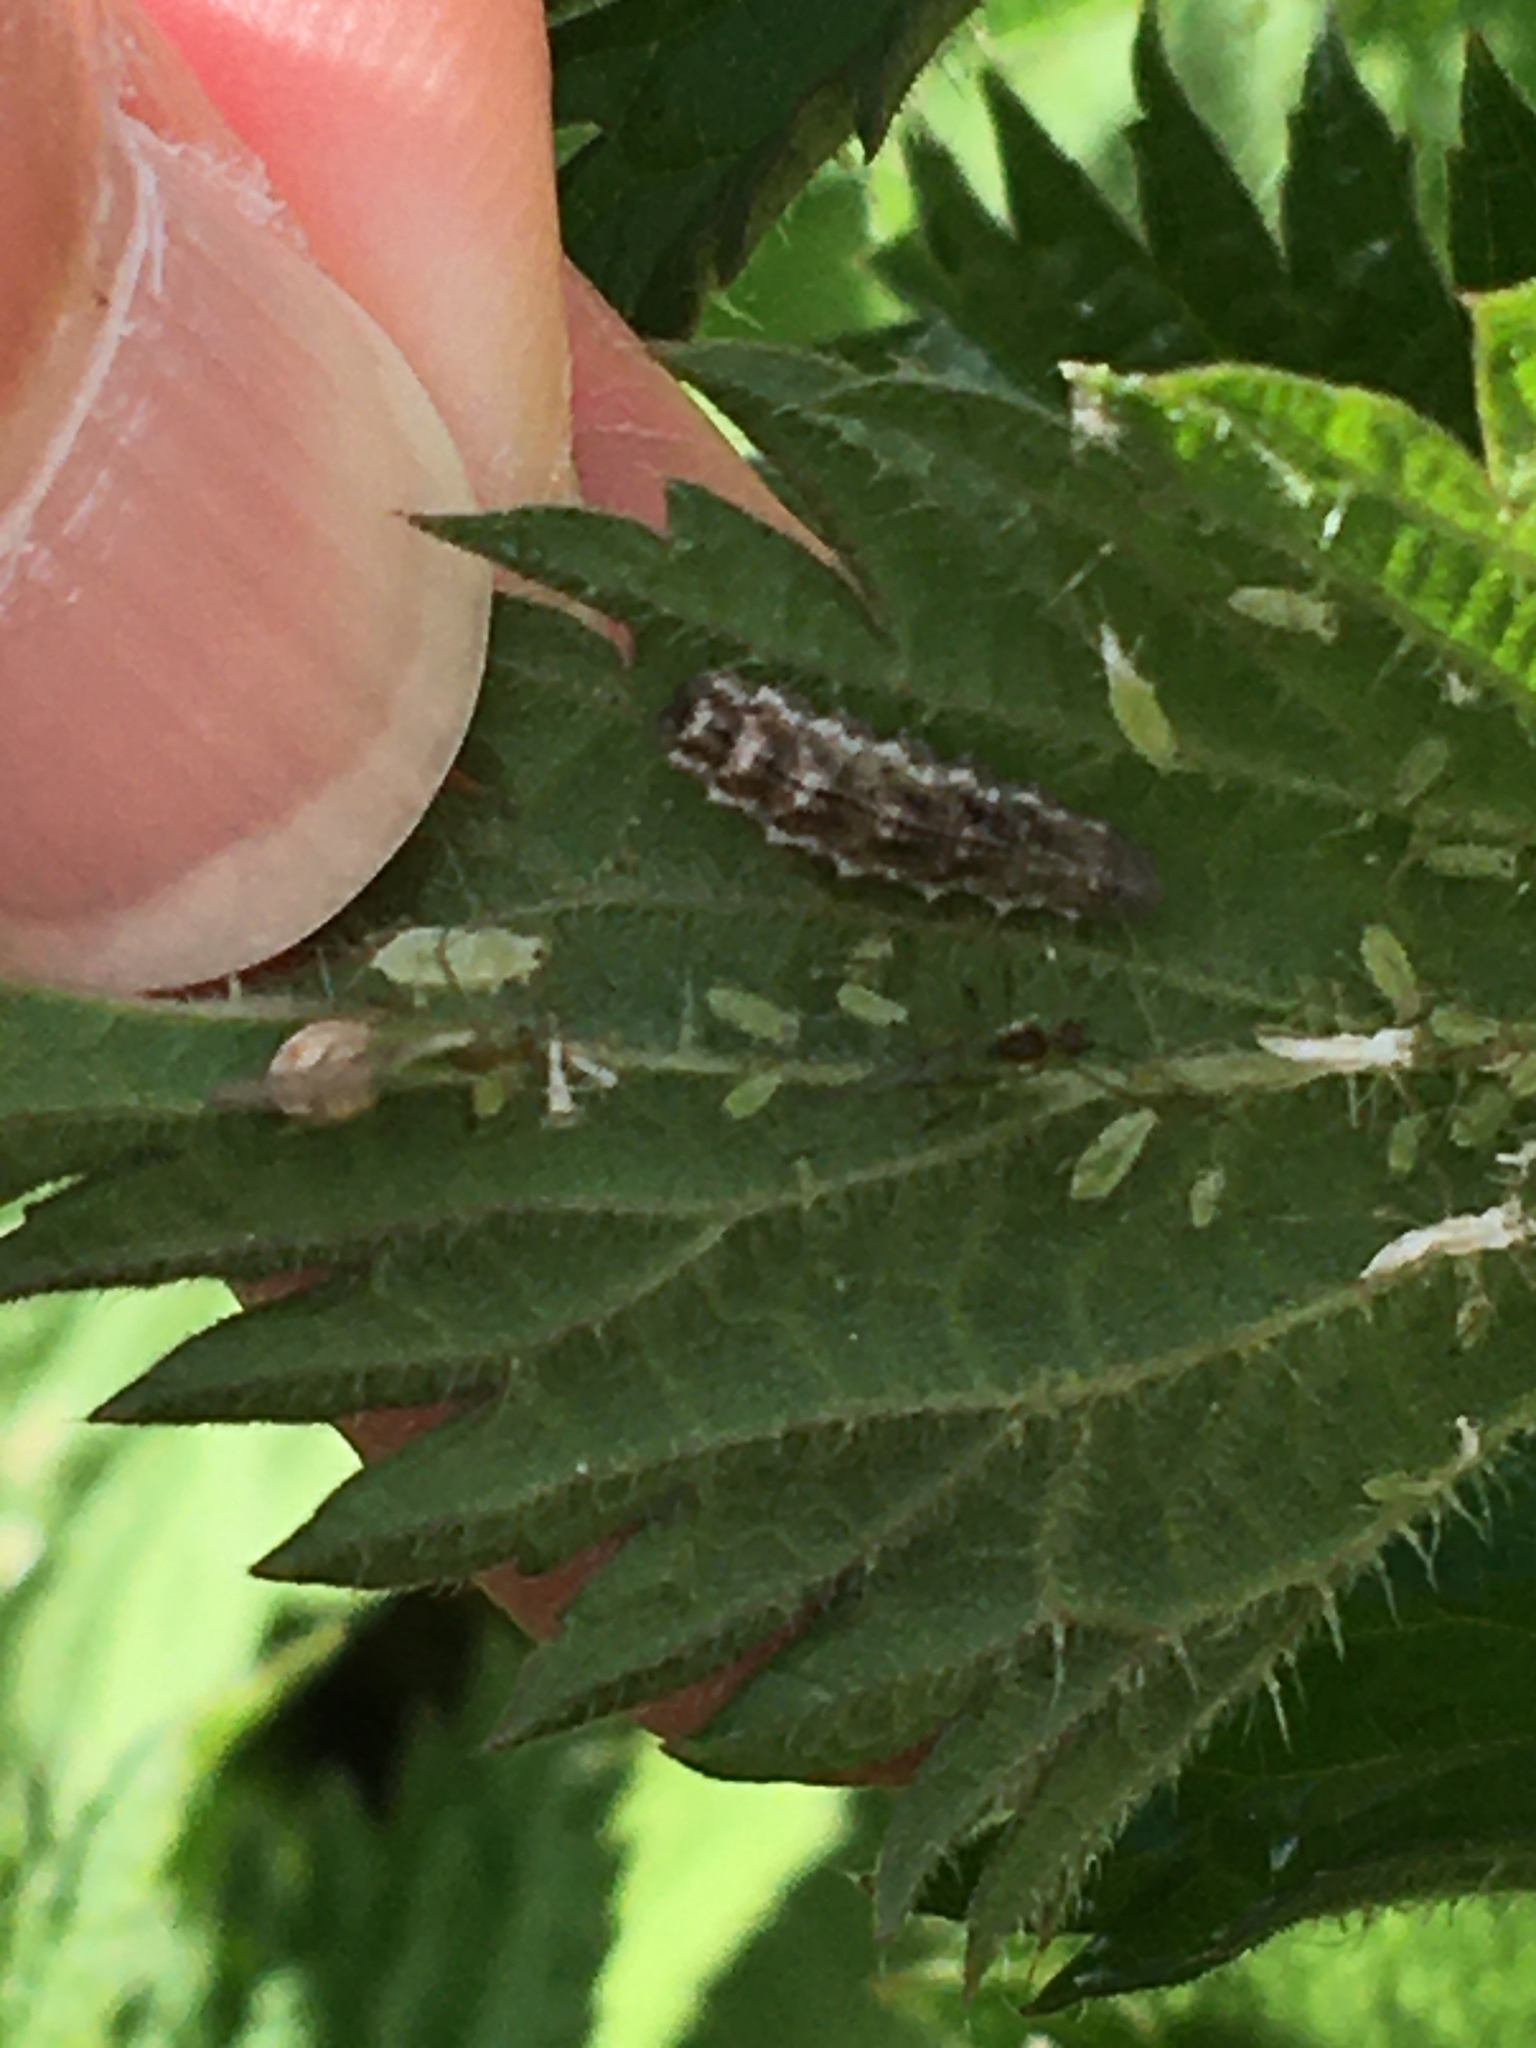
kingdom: Animalia
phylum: Arthropoda
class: Insecta
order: Diptera
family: Syrphidae
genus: Eupeodes
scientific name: Eupeodes
